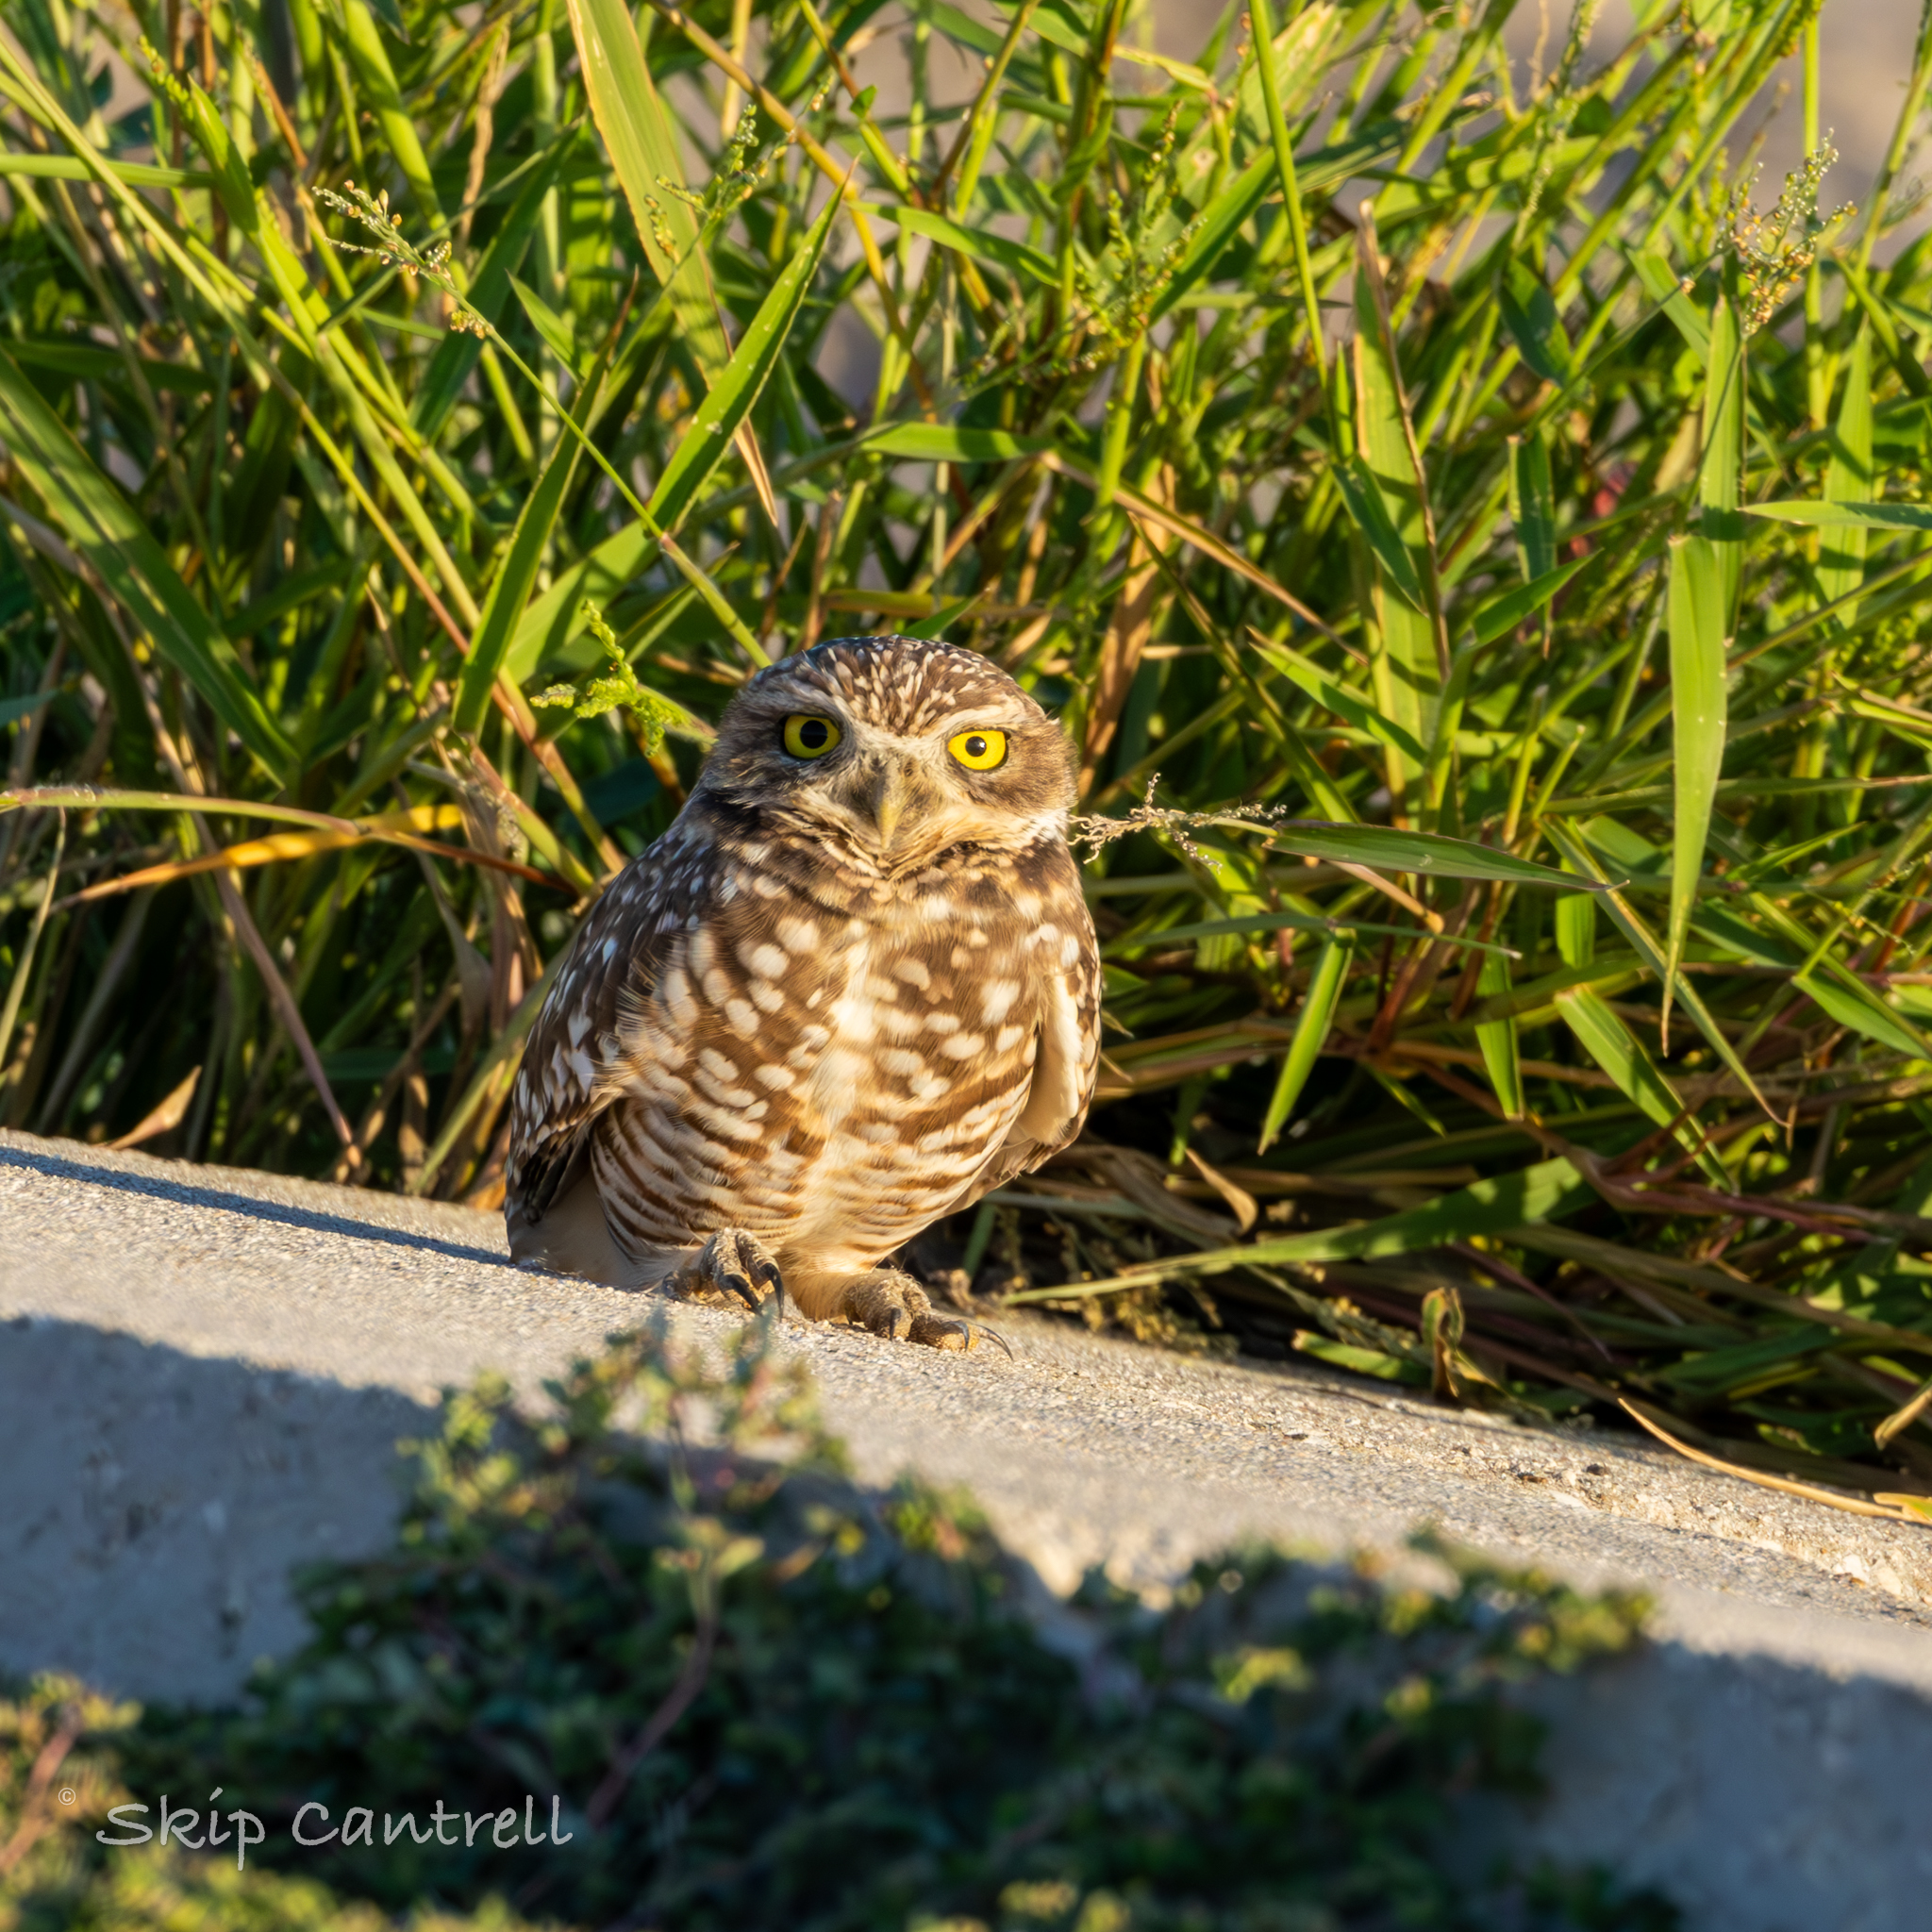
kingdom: Animalia
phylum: Chordata
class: Aves
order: Strigiformes
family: Strigidae
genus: Athene
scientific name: Athene cunicularia
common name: Burrowing owl
